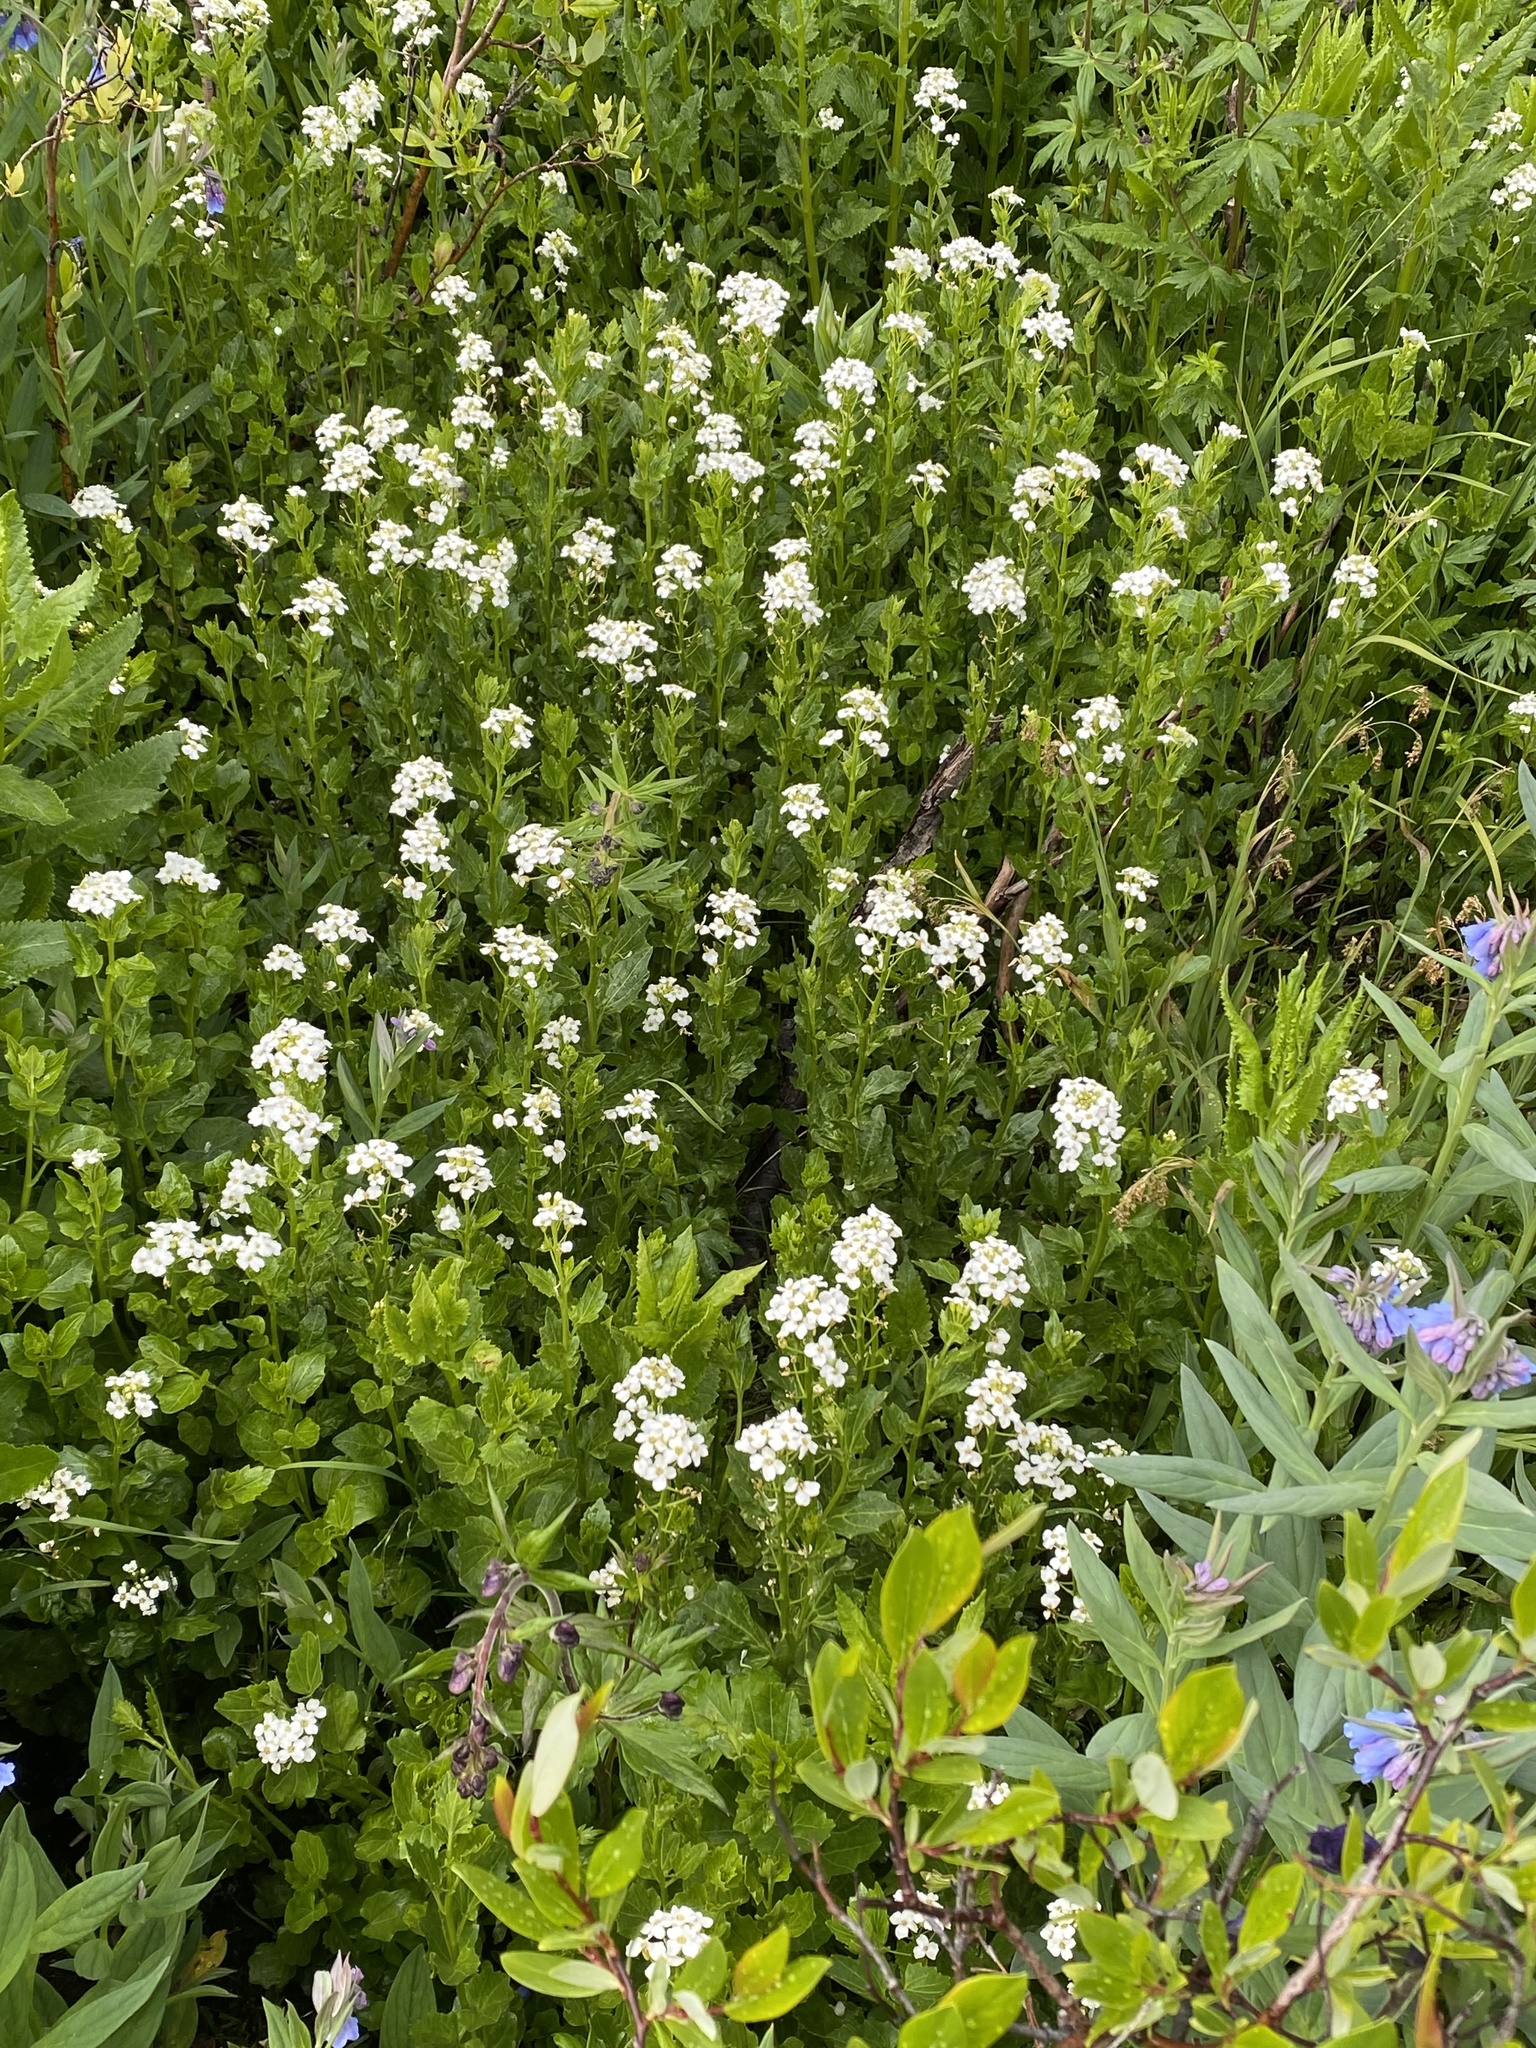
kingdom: Plantae
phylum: Tracheophyta
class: Magnoliopsida
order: Brassicales
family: Brassicaceae
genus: Cardamine
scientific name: Cardamine cordifolia
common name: Heart-leaf bittercress
